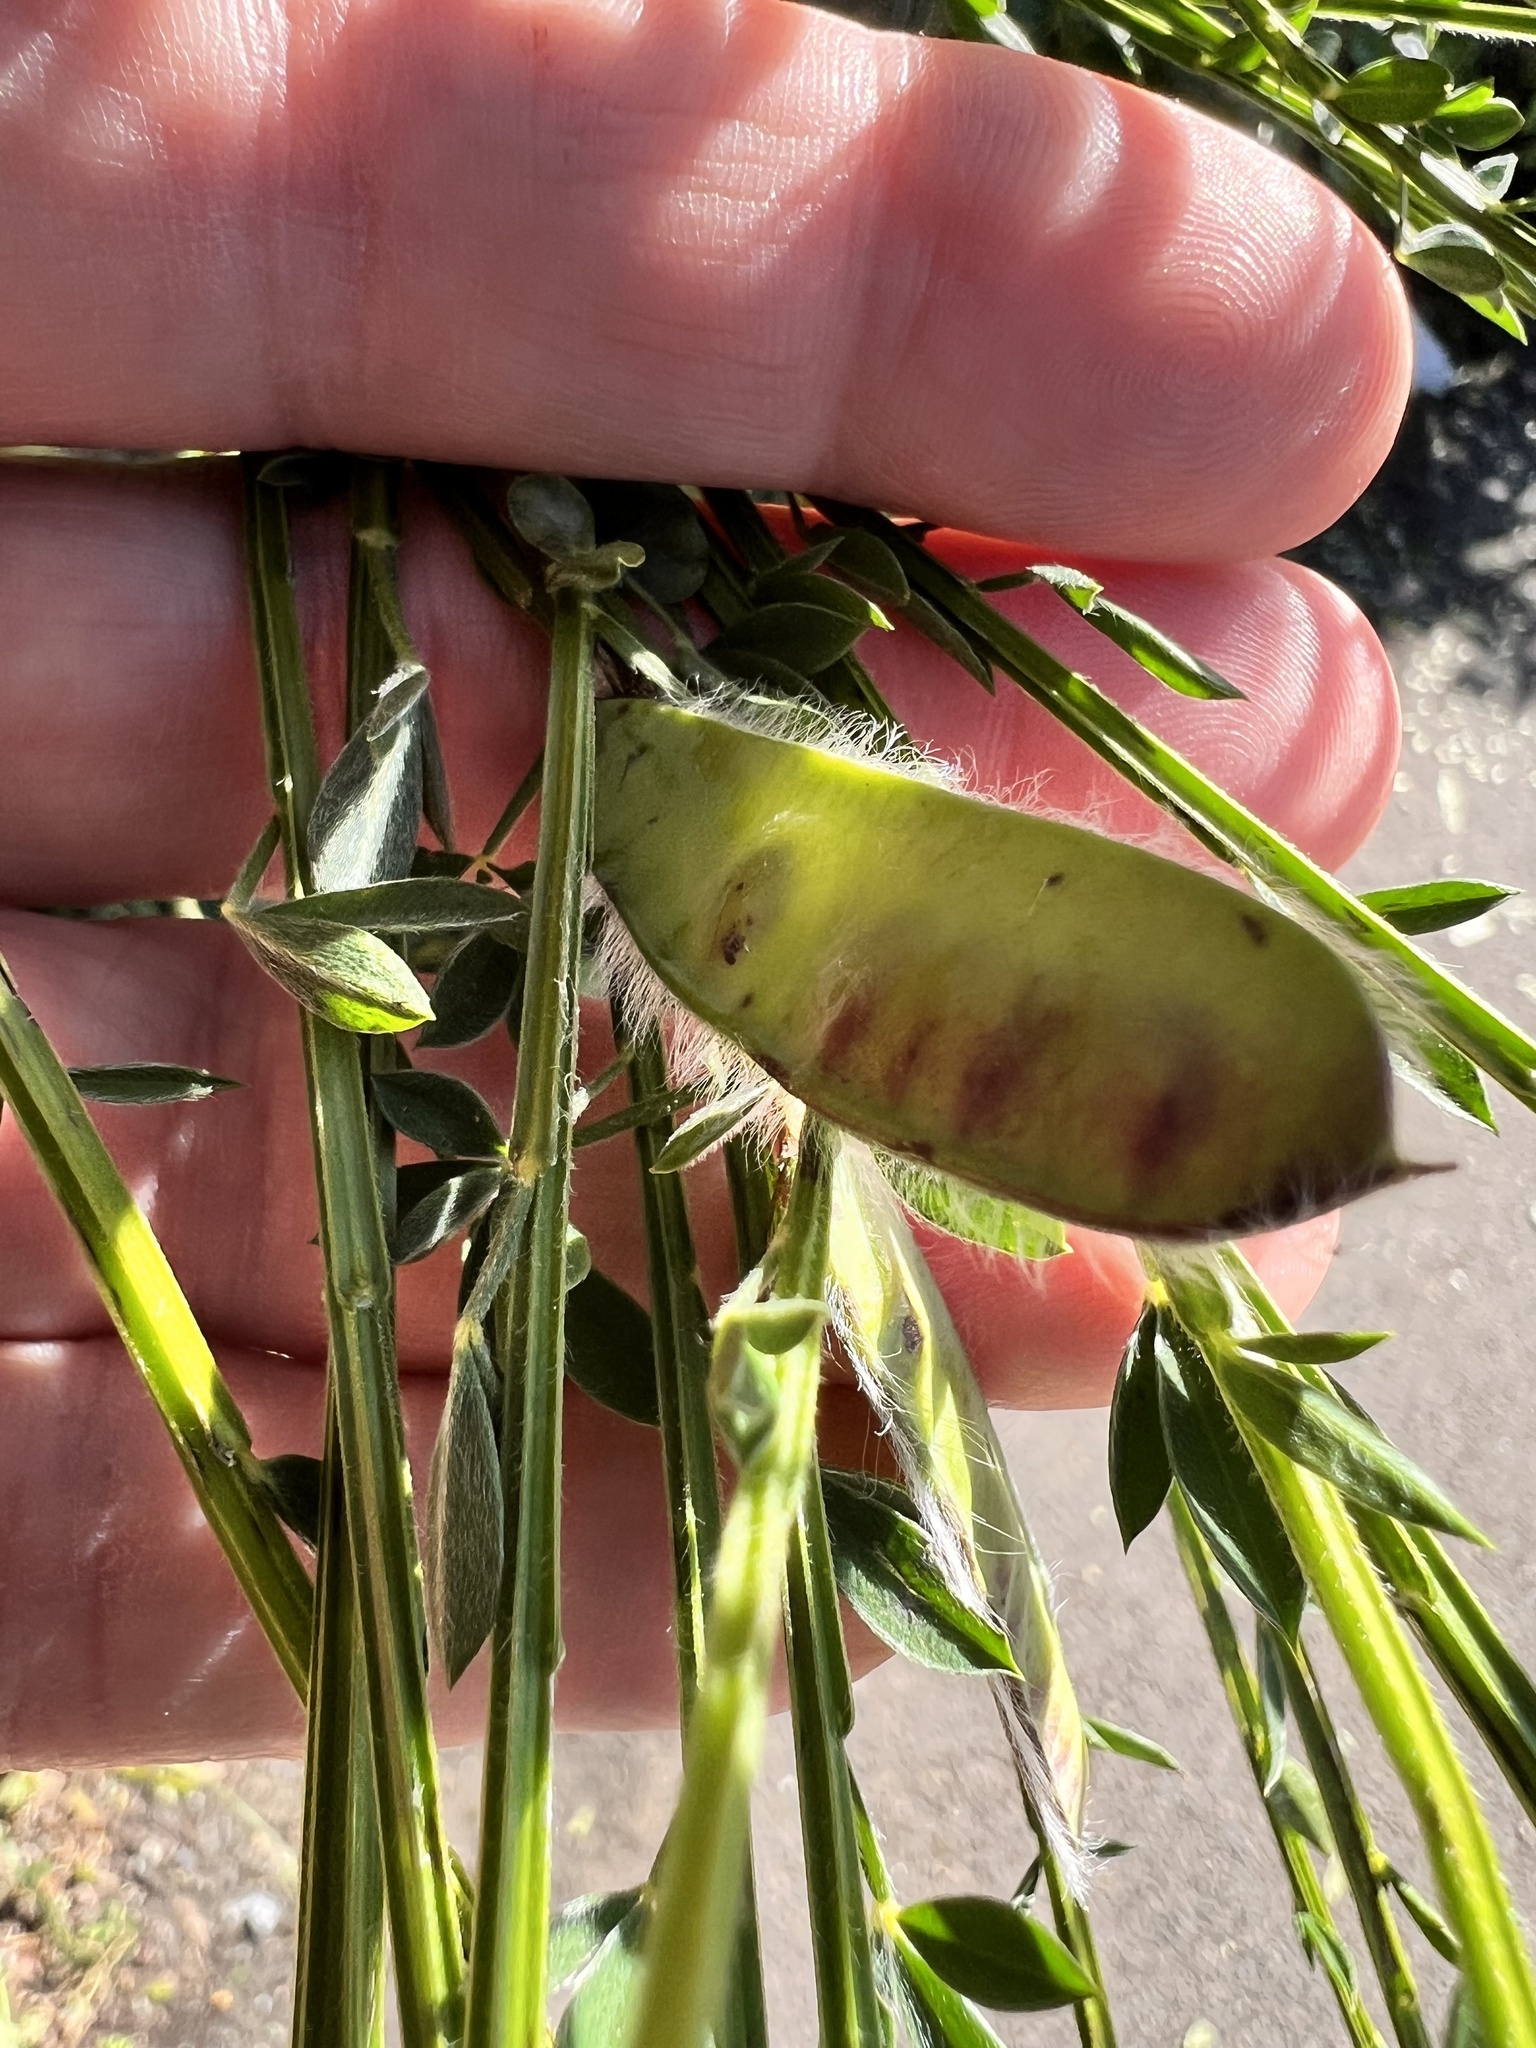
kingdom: Plantae
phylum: Tracheophyta
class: Magnoliopsida
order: Fabales
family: Fabaceae
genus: Cytisus
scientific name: Cytisus scoparius
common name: Scotch broom
